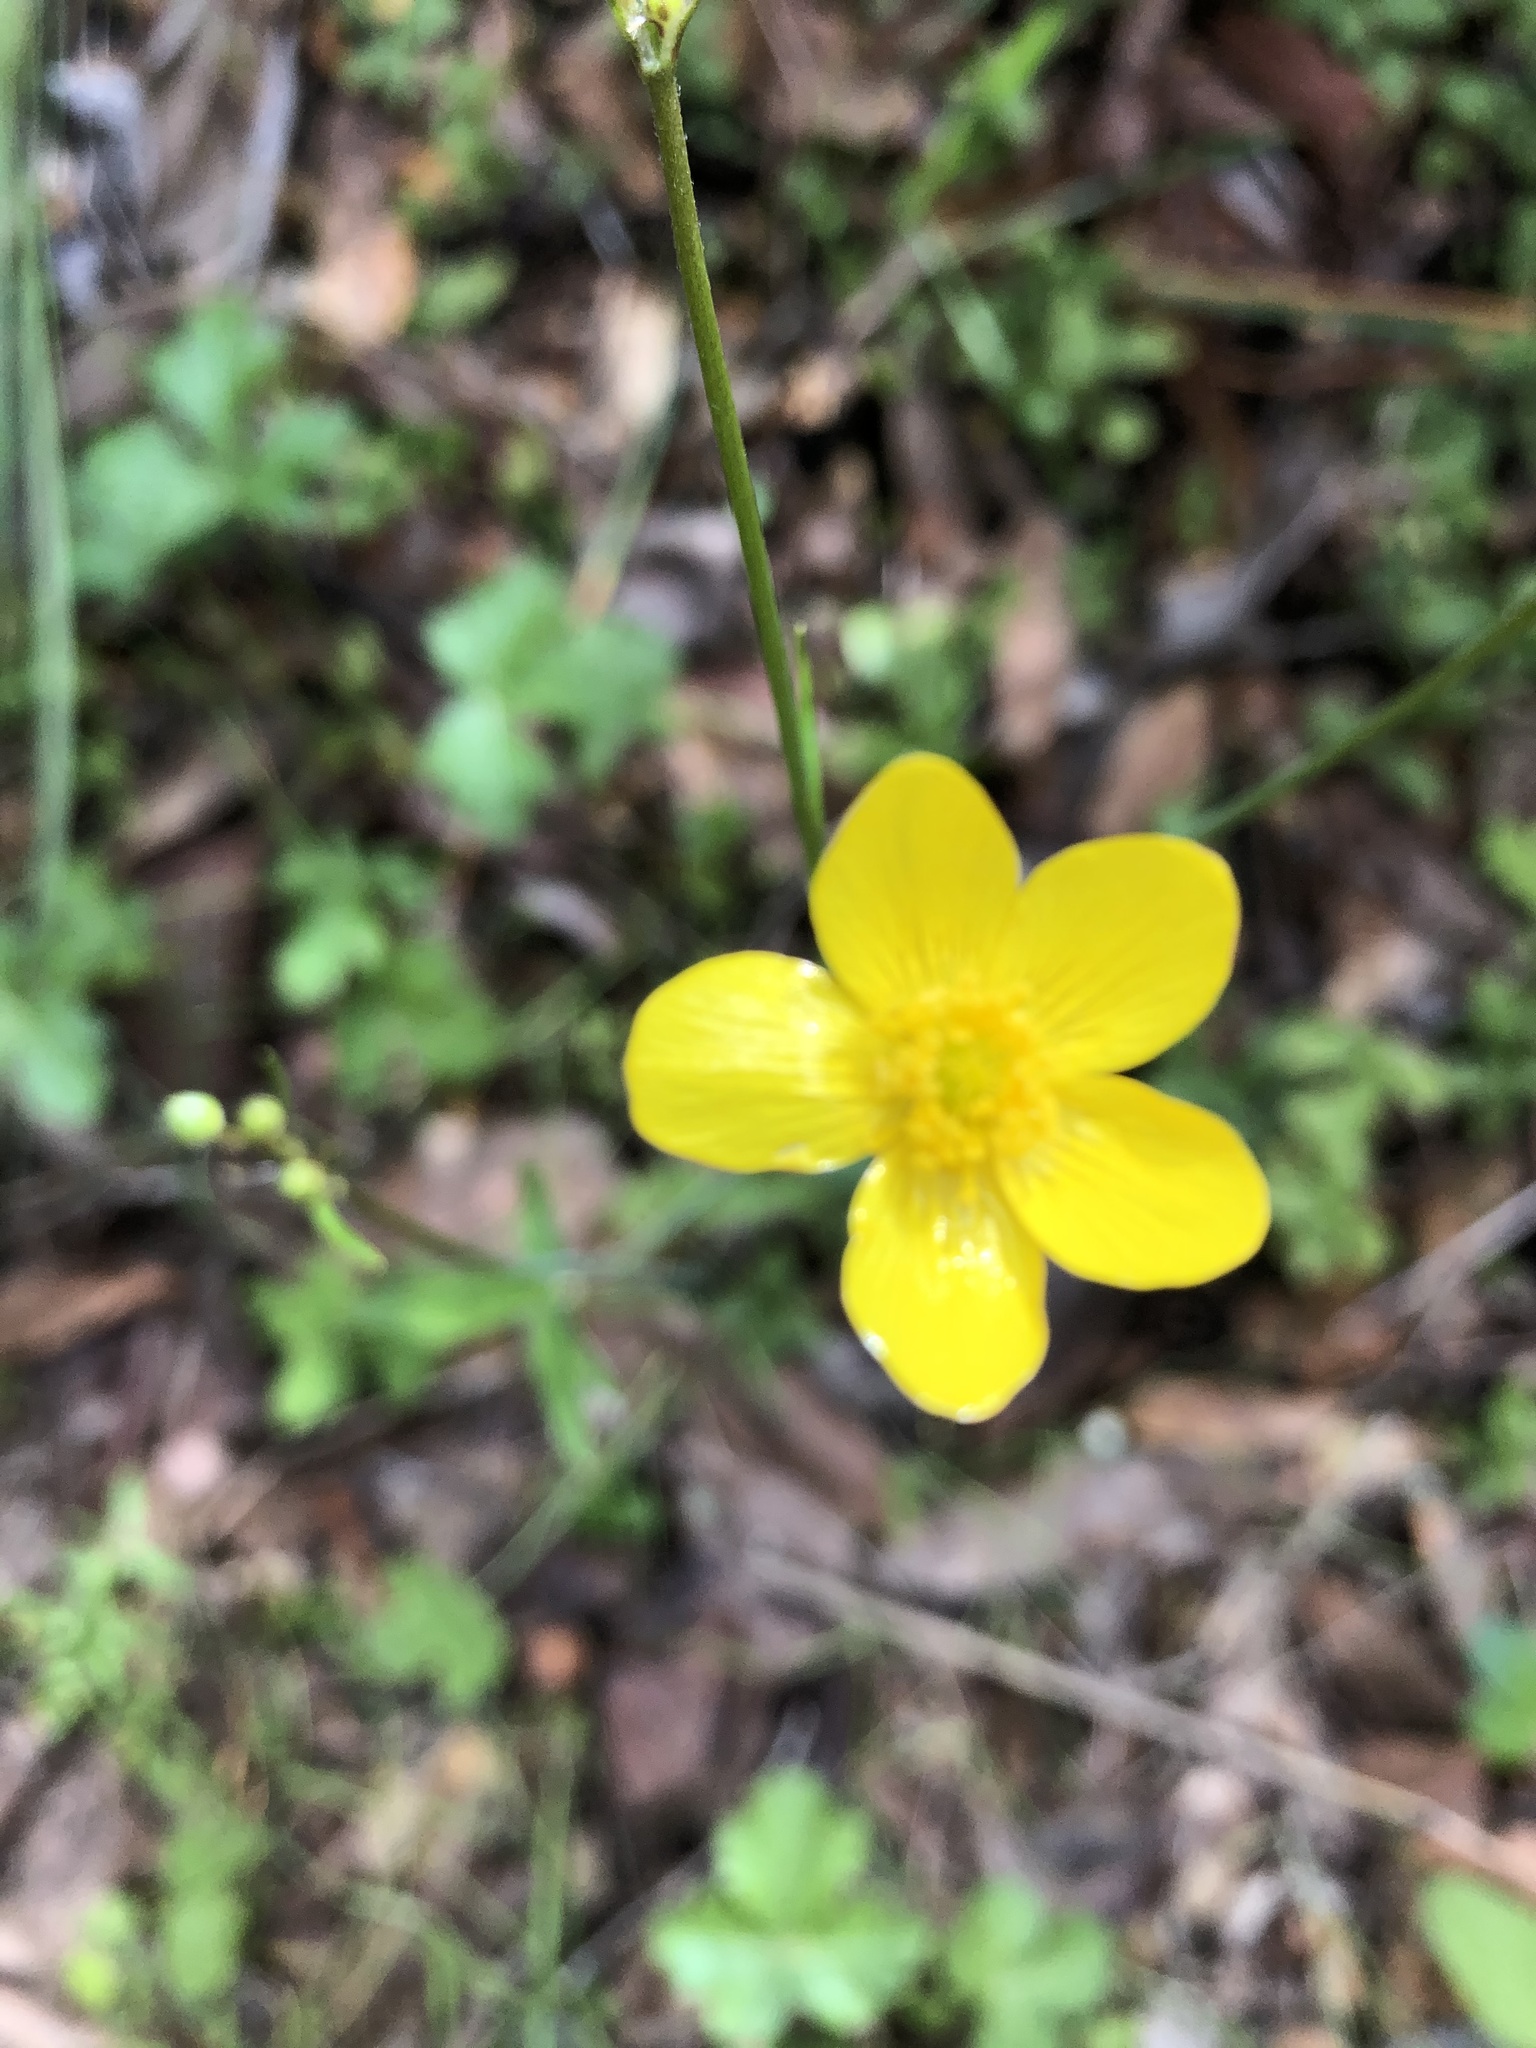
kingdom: Plantae
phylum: Tracheophyta
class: Magnoliopsida
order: Ranunculales
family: Ranunculaceae
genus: Ranunculus
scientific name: Ranunculus occidentalis
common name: Western buttercup
